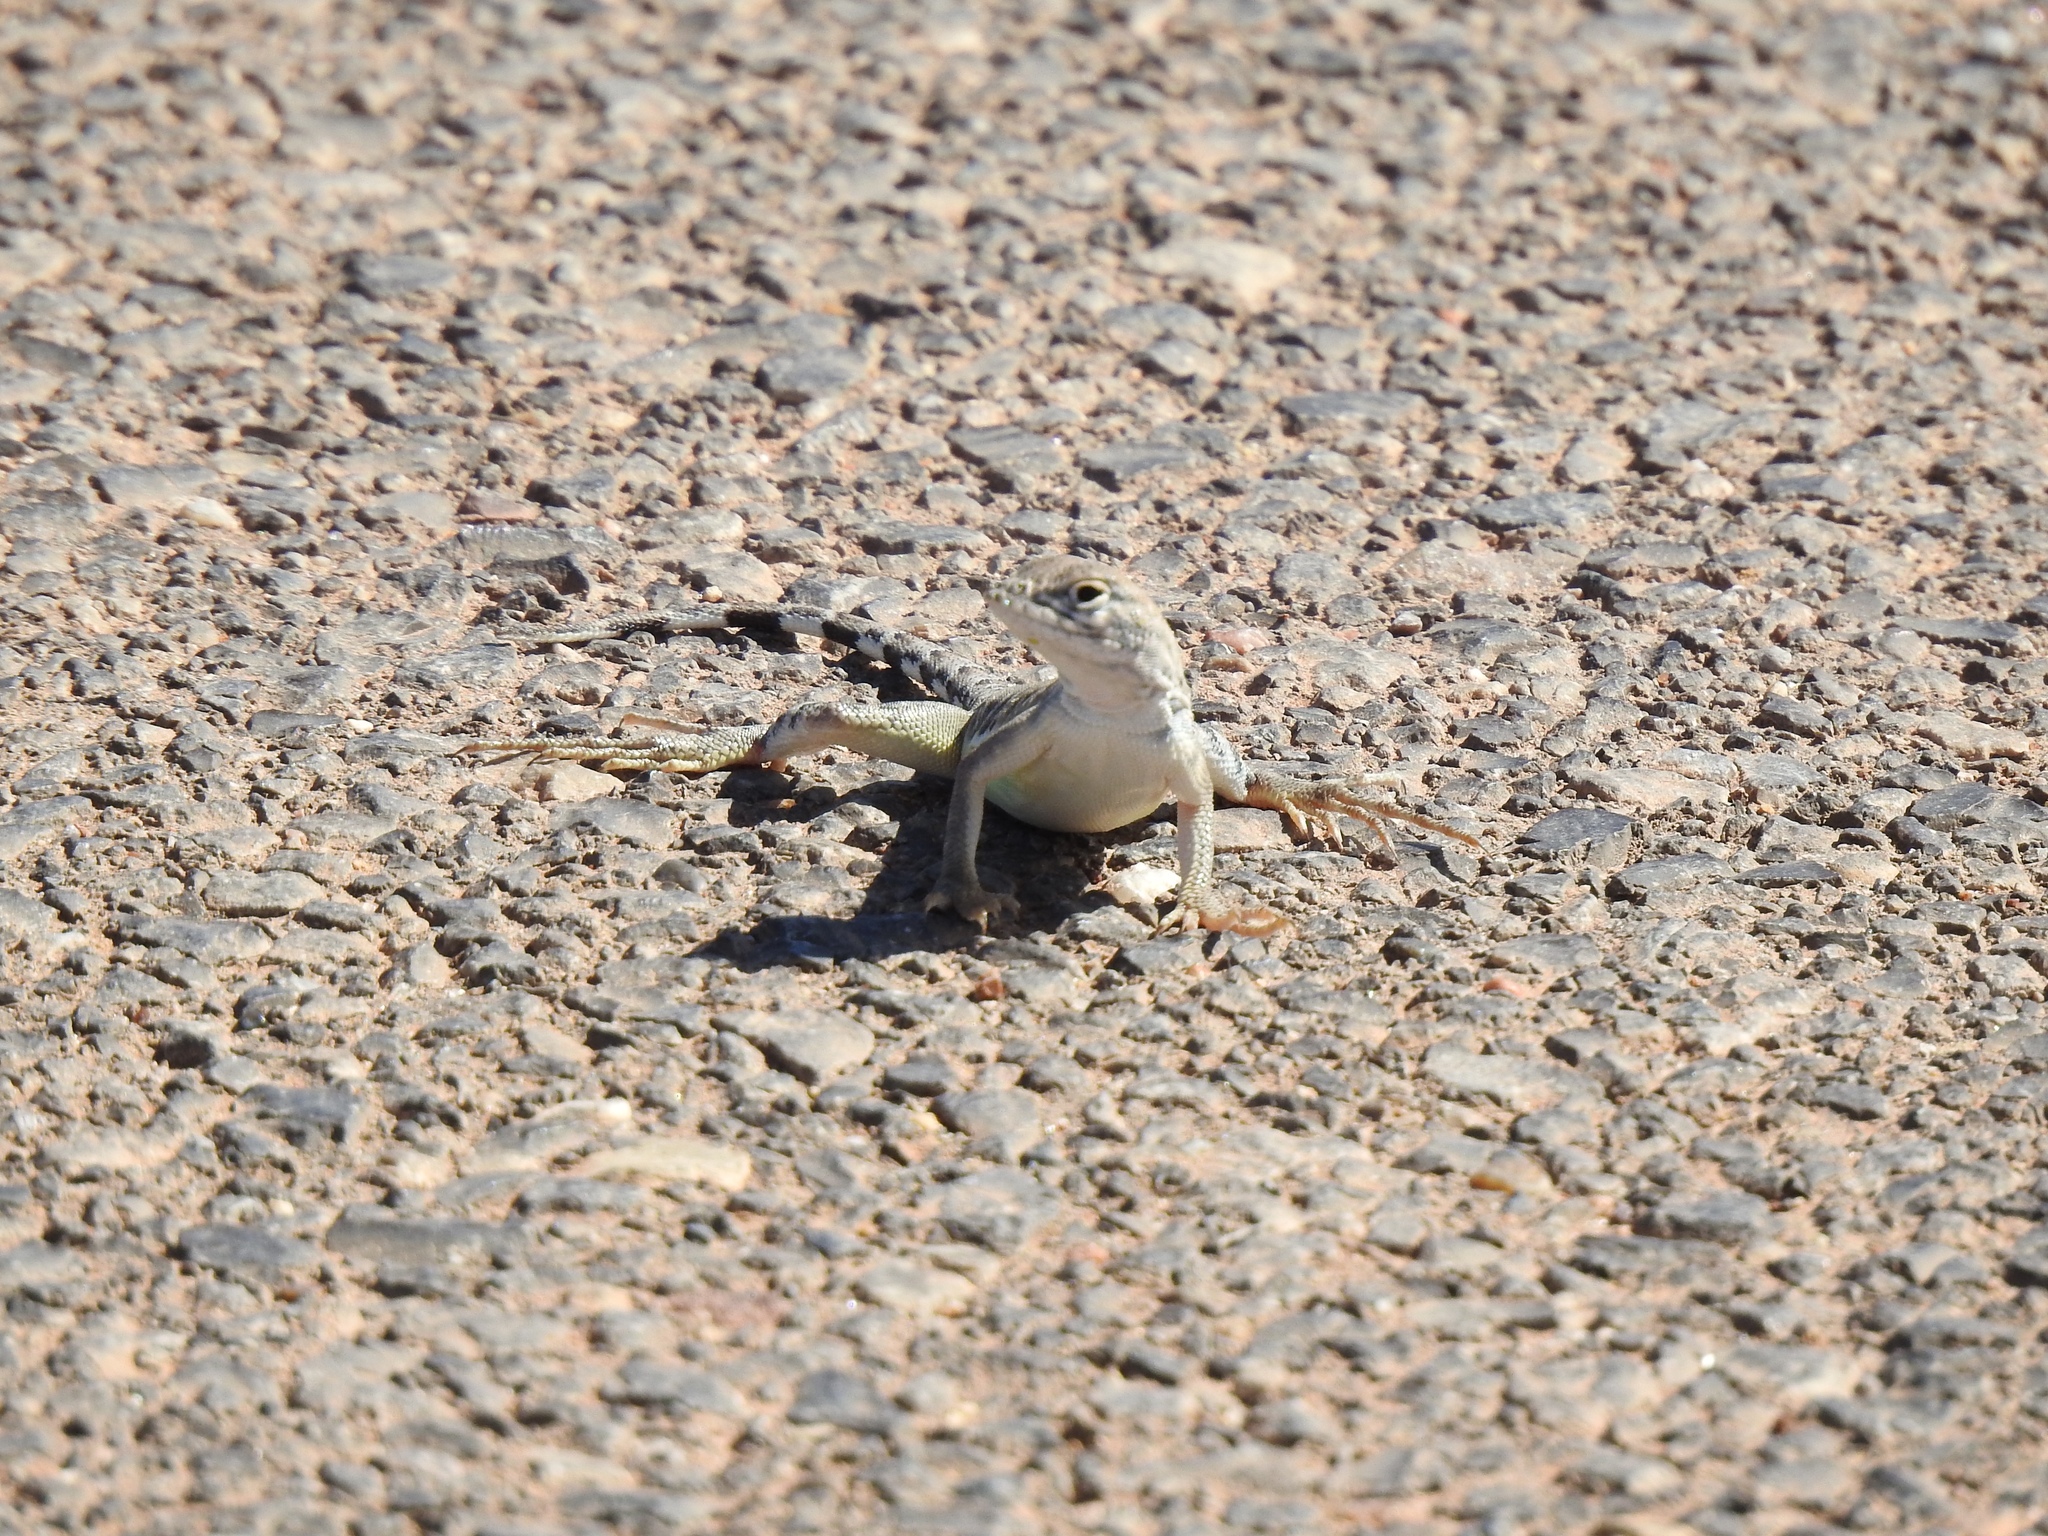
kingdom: Animalia
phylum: Chordata
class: Squamata
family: Phrynosomatidae
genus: Cophosaurus
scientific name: Cophosaurus texanus
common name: Greater earless lizard
